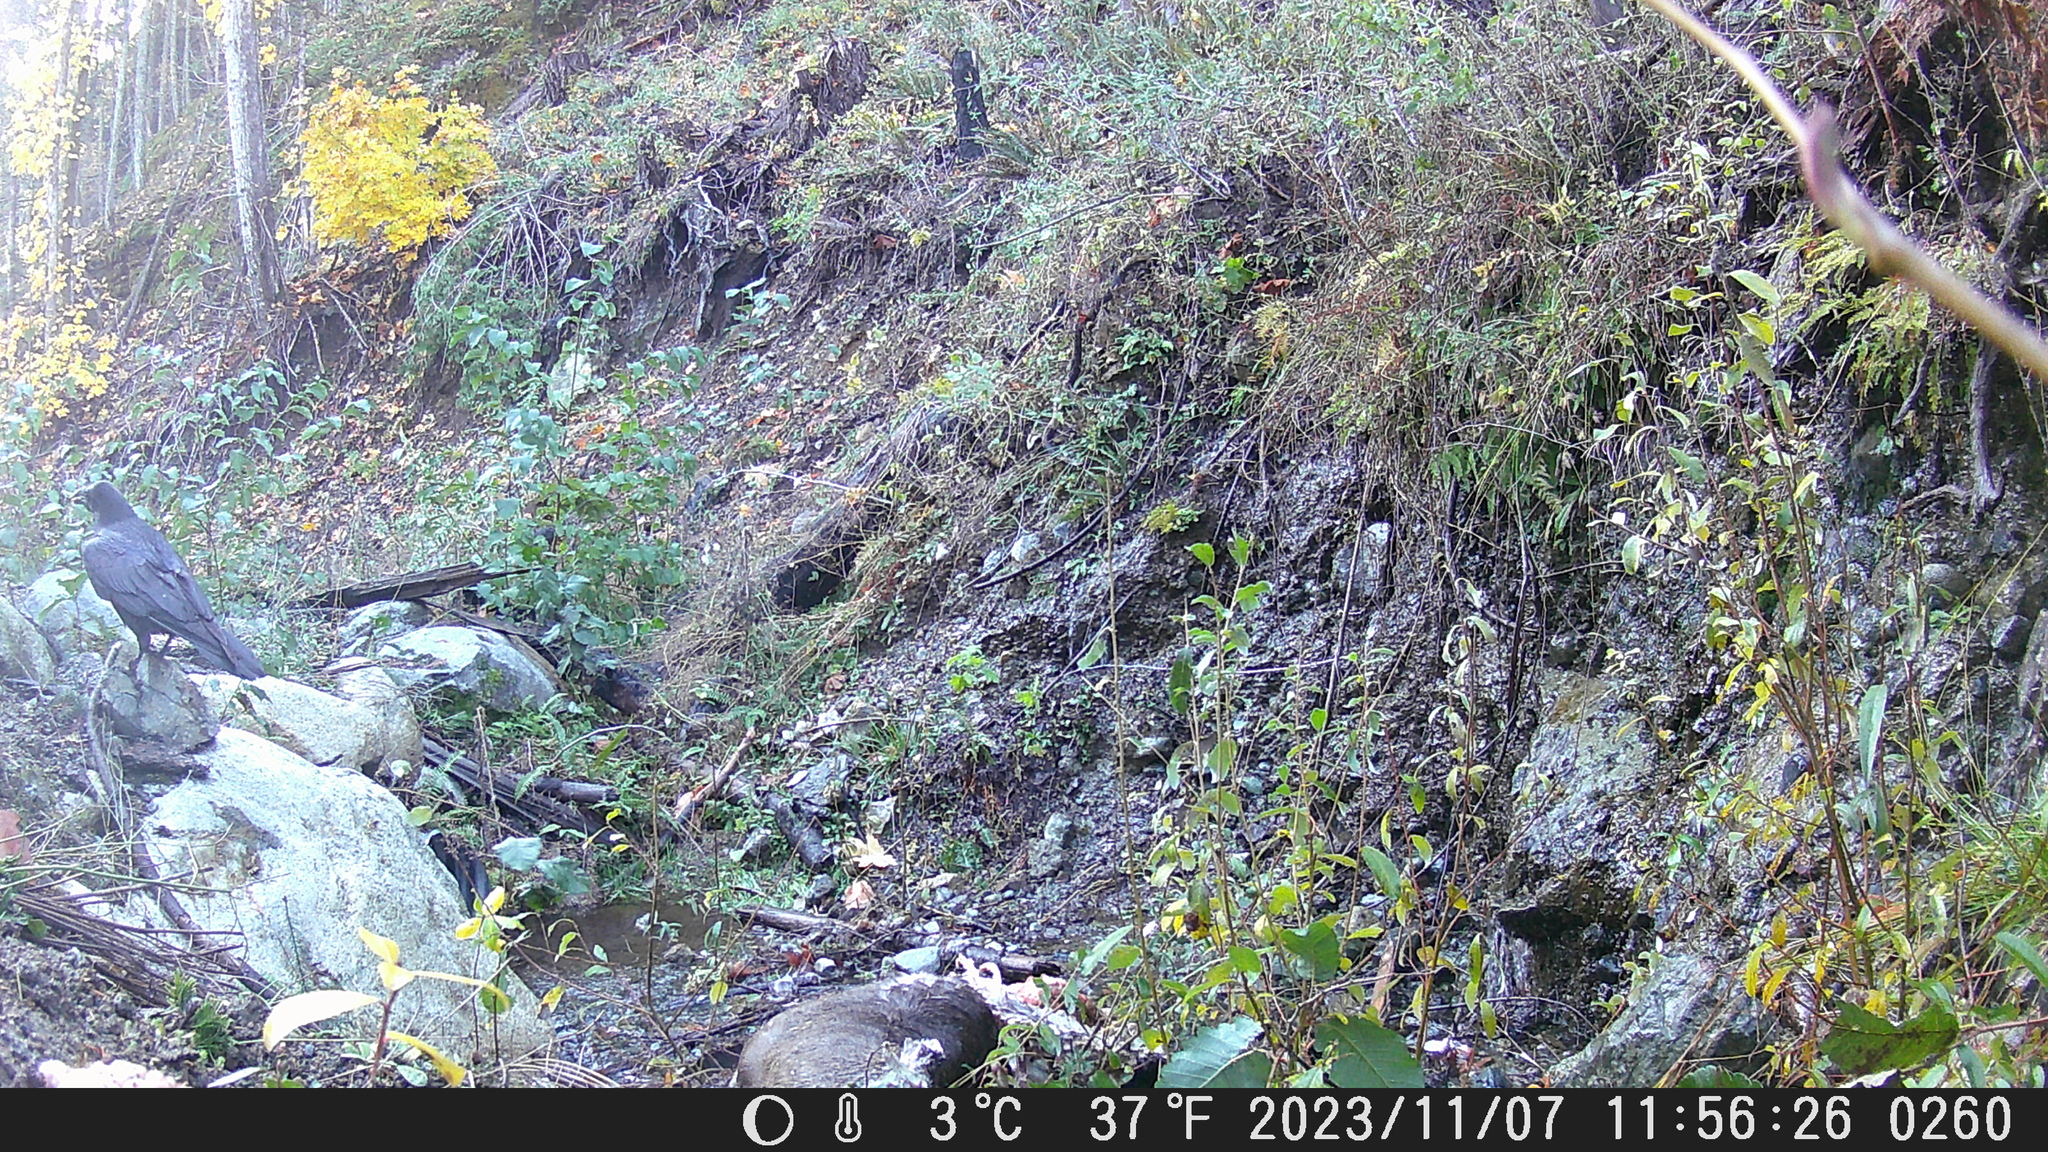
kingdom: Animalia
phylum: Chordata
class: Aves
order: Passeriformes
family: Corvidae
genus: Corvus
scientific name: Corvus corax
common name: Common raven
